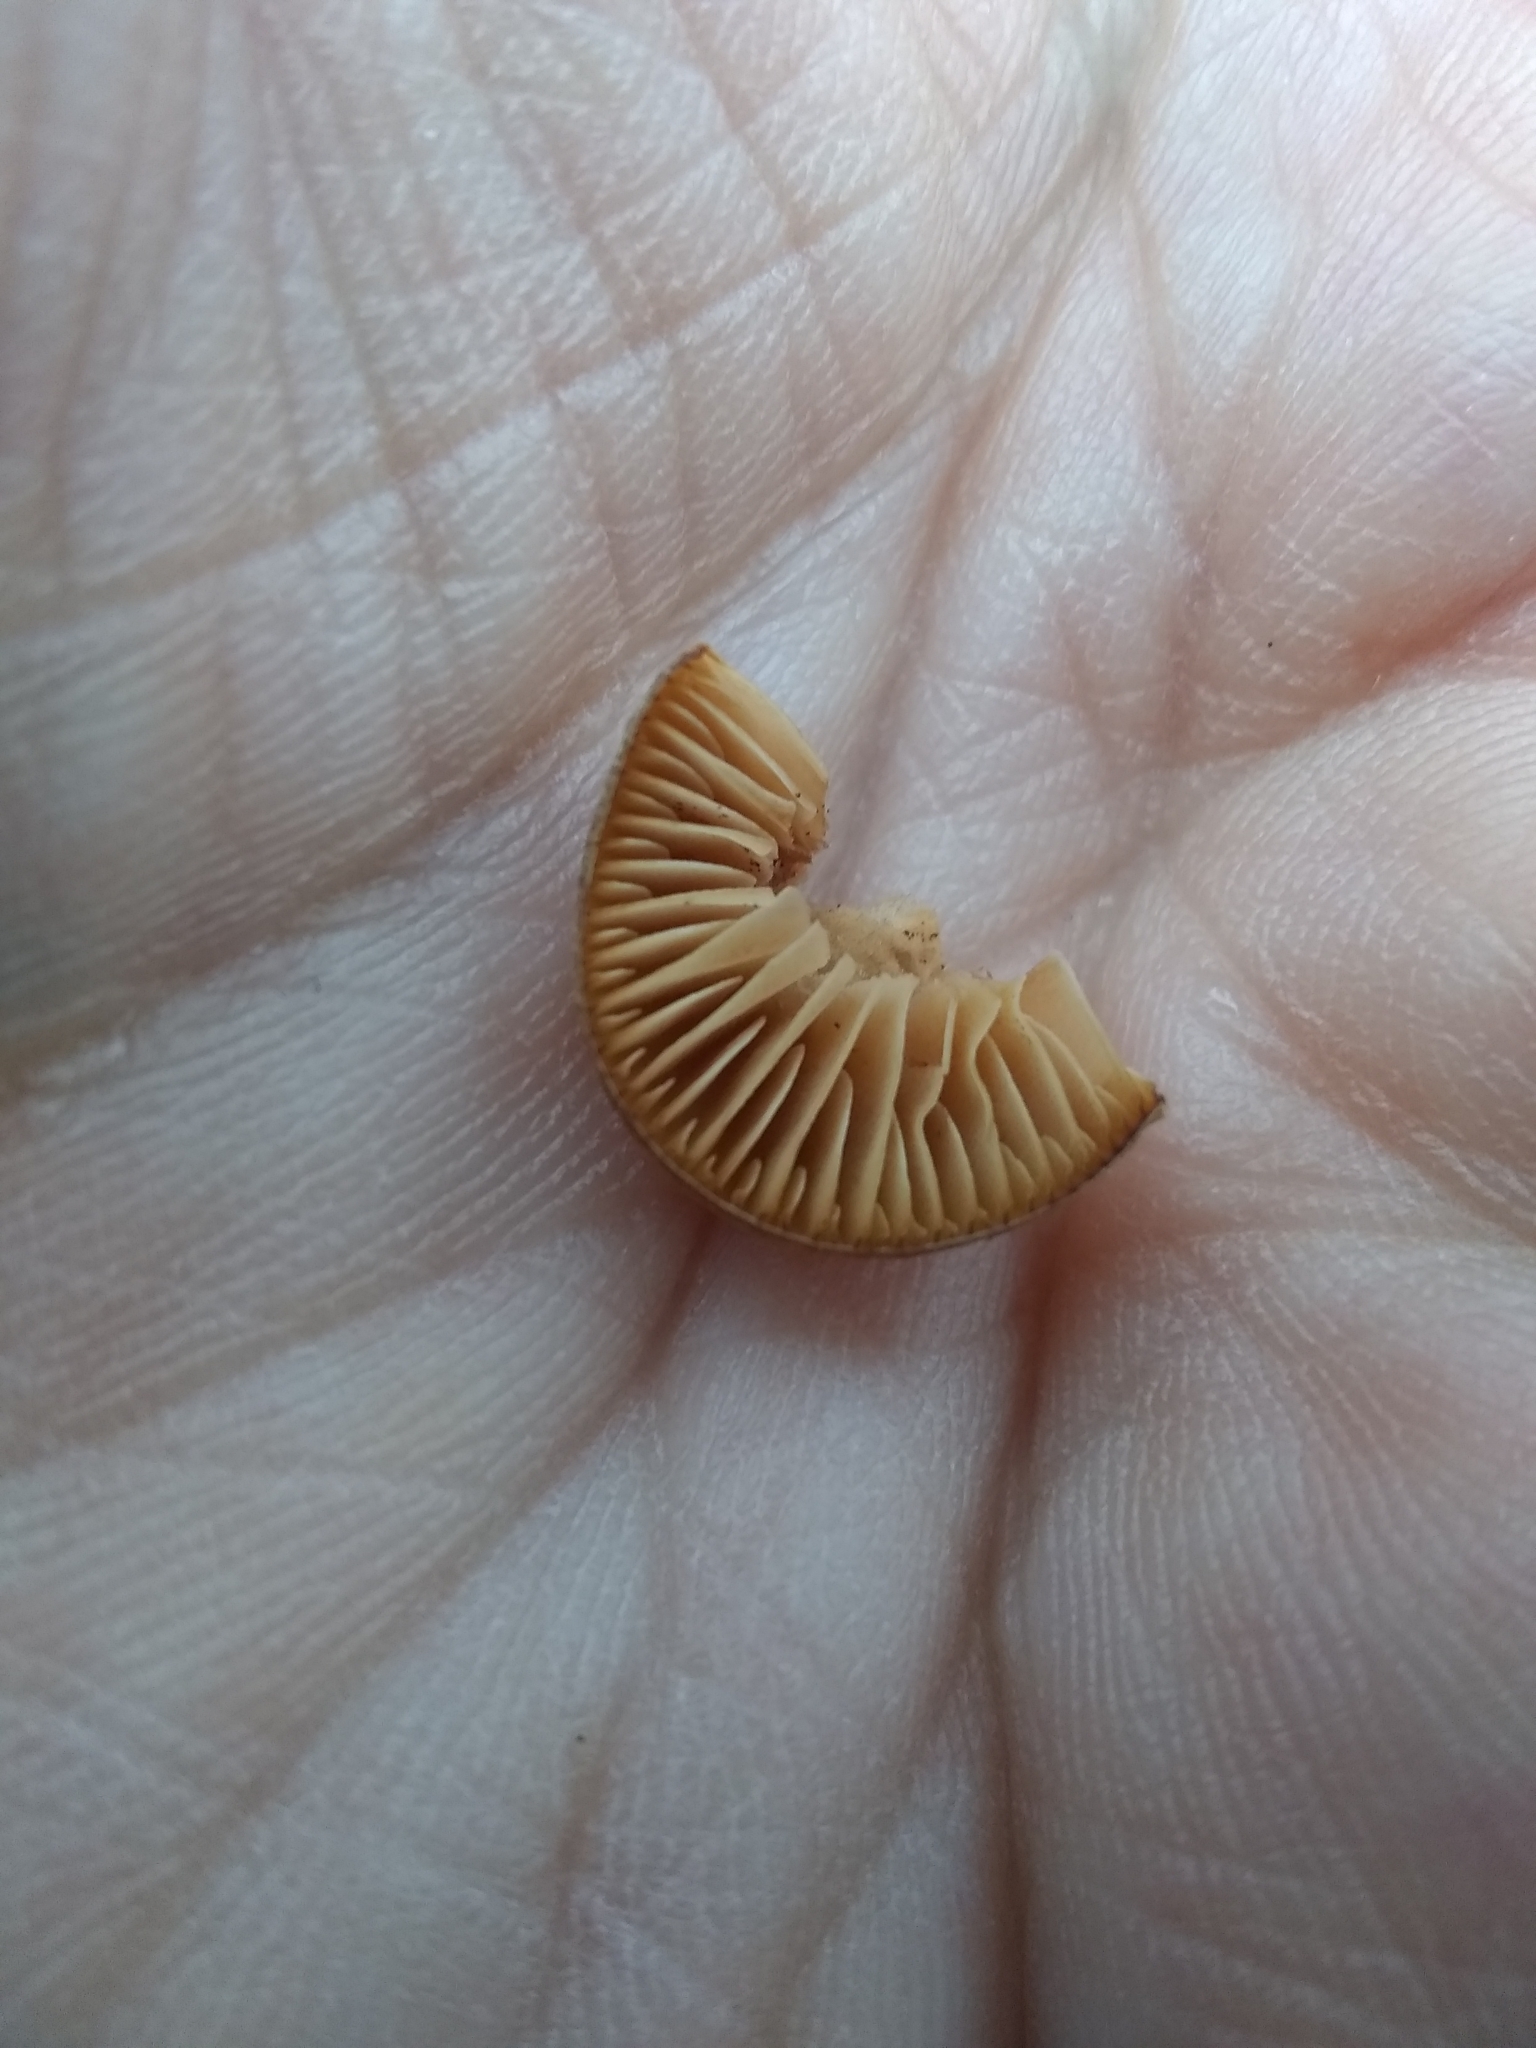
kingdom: Fungi
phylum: Basidiomycota
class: Agaricomycetes
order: Agaricales
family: Strophariaceae
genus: Agrocybe
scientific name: Agrocybe pediades
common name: Common fieldcap
